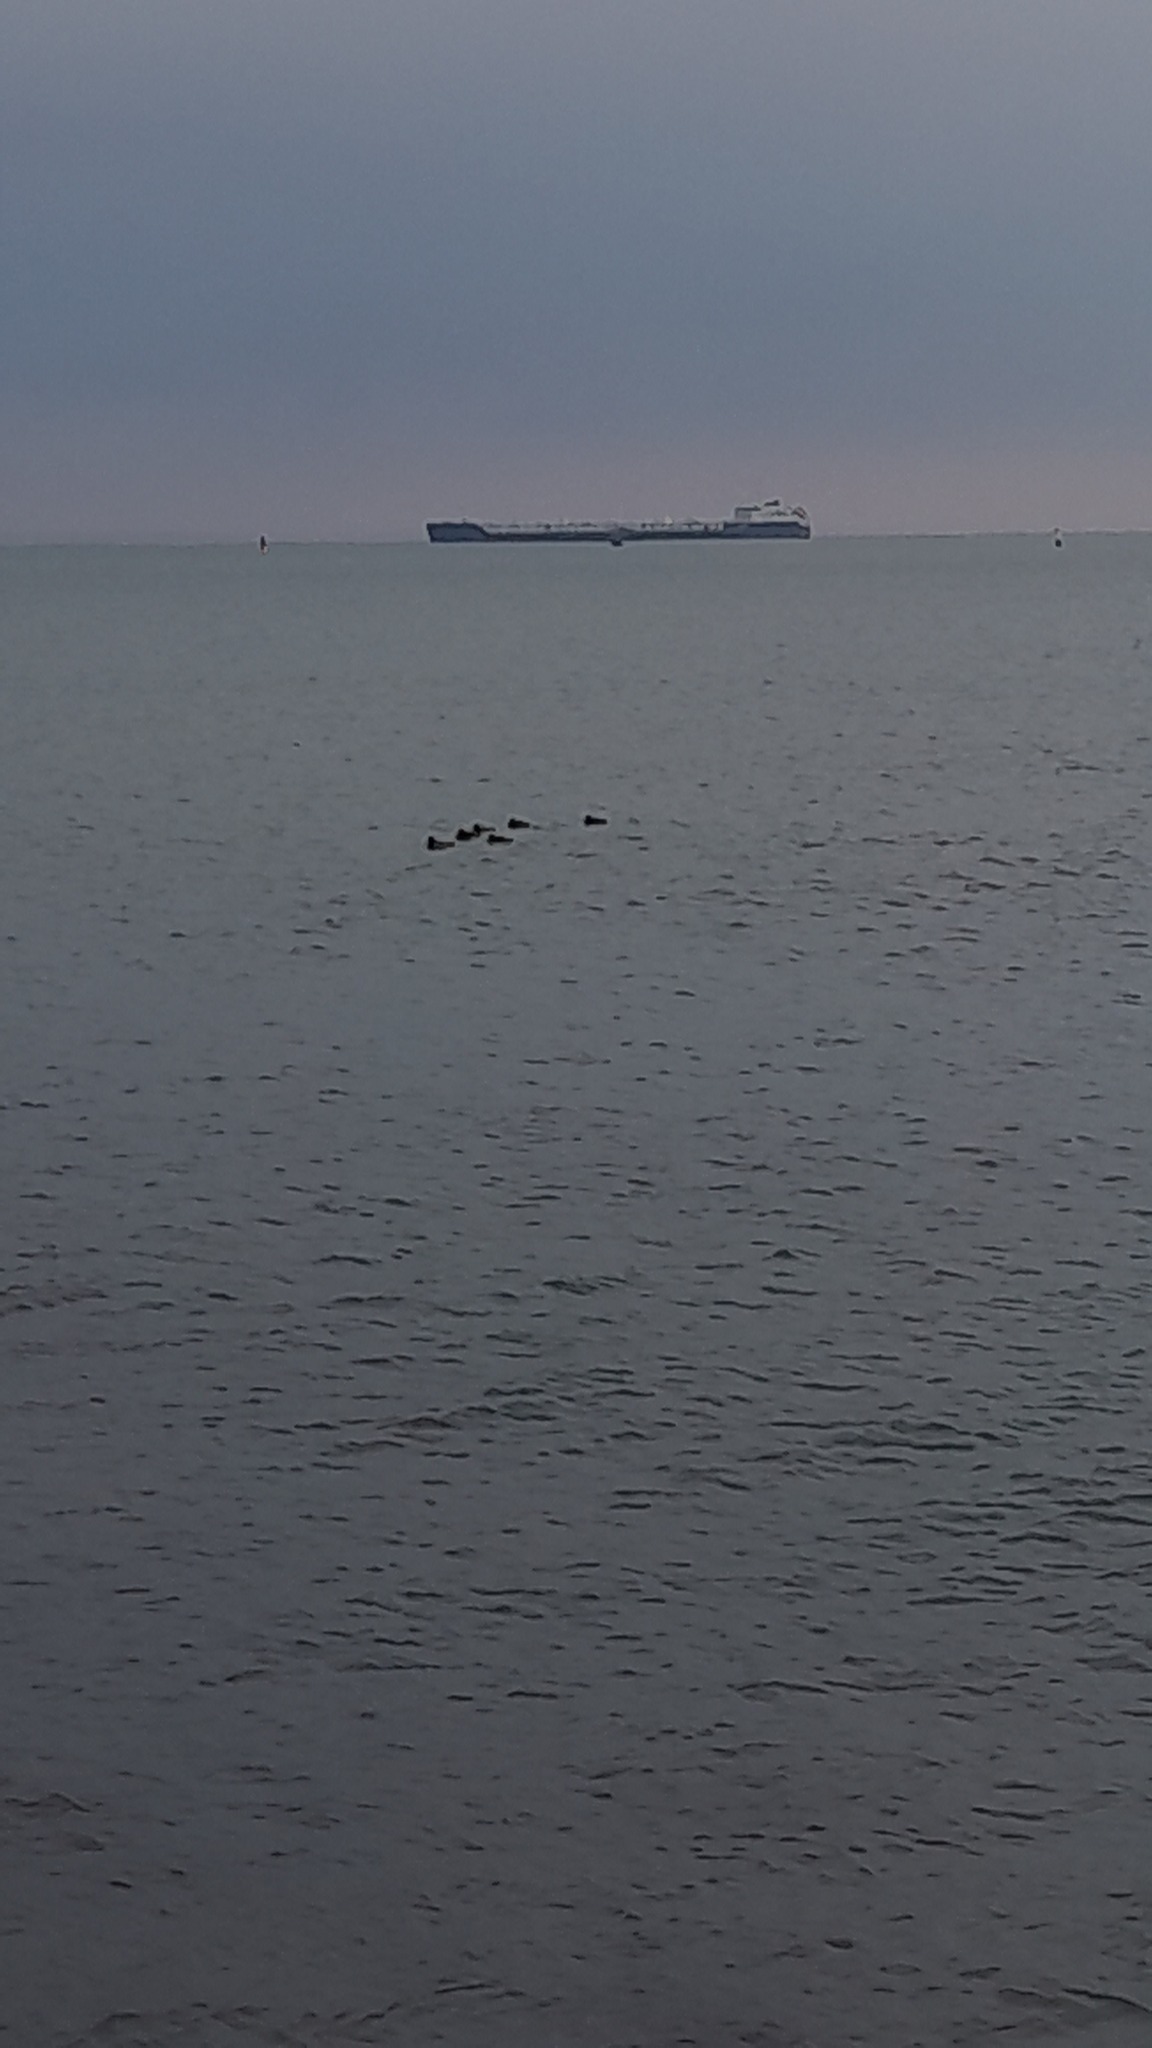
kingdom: Animalia
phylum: Chordata
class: Aves
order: Gruiformes
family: Rallidae
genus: Fulica
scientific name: Fulica atra
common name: Eurasian coot
